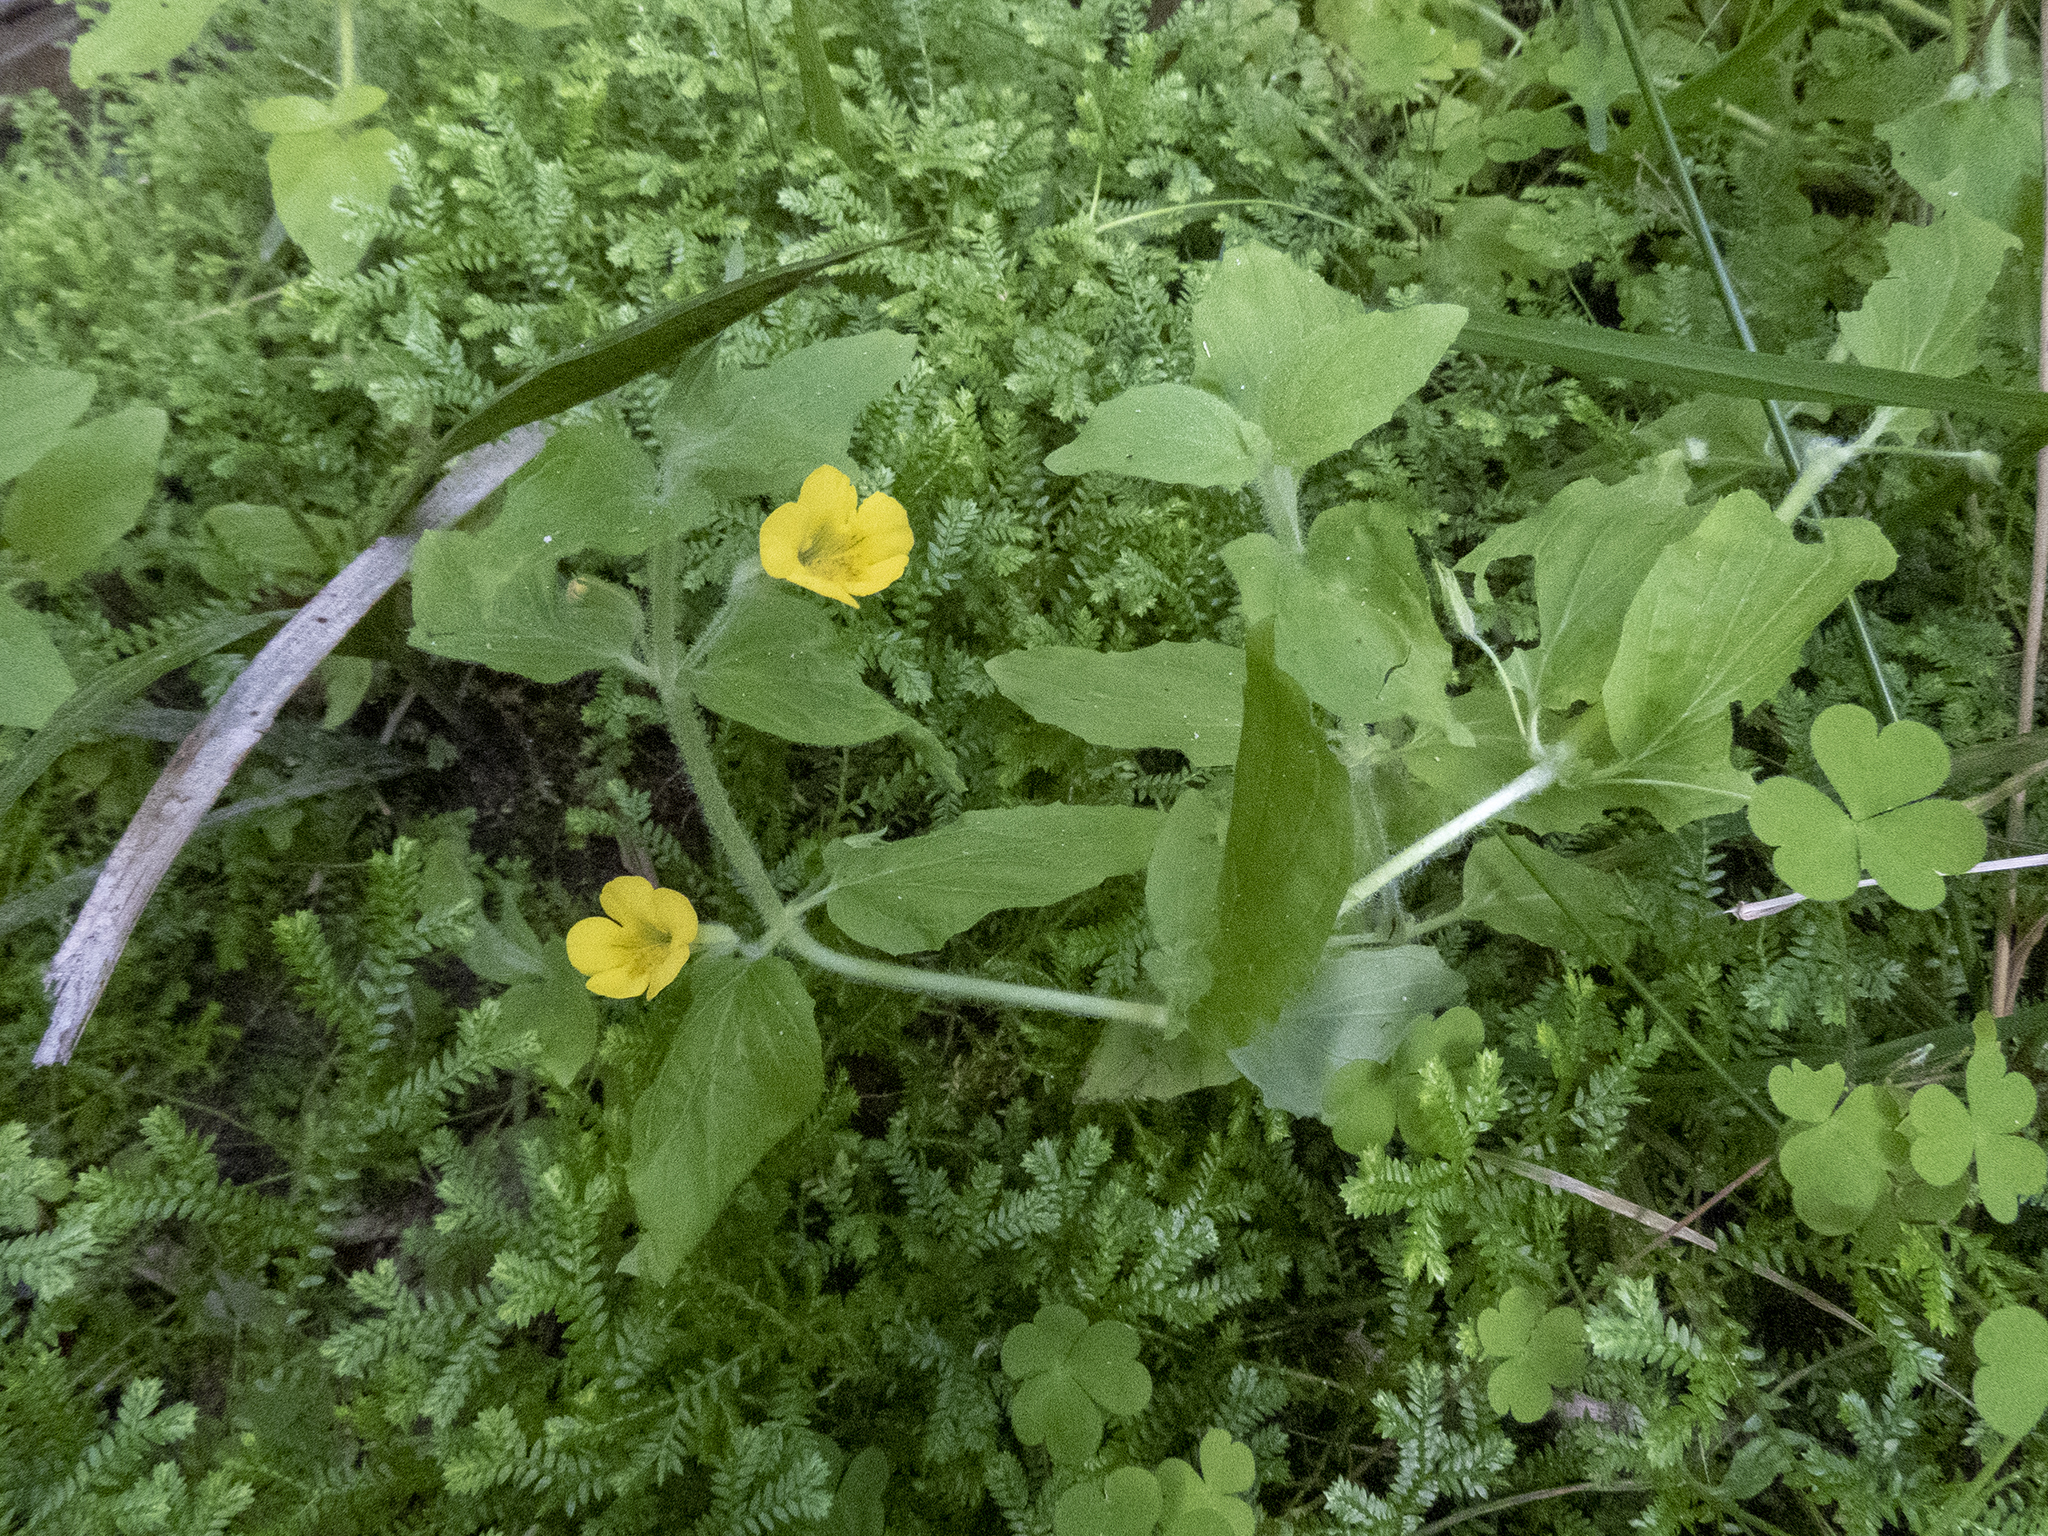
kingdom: Plantae
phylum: Tracheophyta
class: Magnoliopsida
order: Lamiales
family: Phrymaceae
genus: Erythranthe
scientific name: Erythranthe moschata
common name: Muskflower
